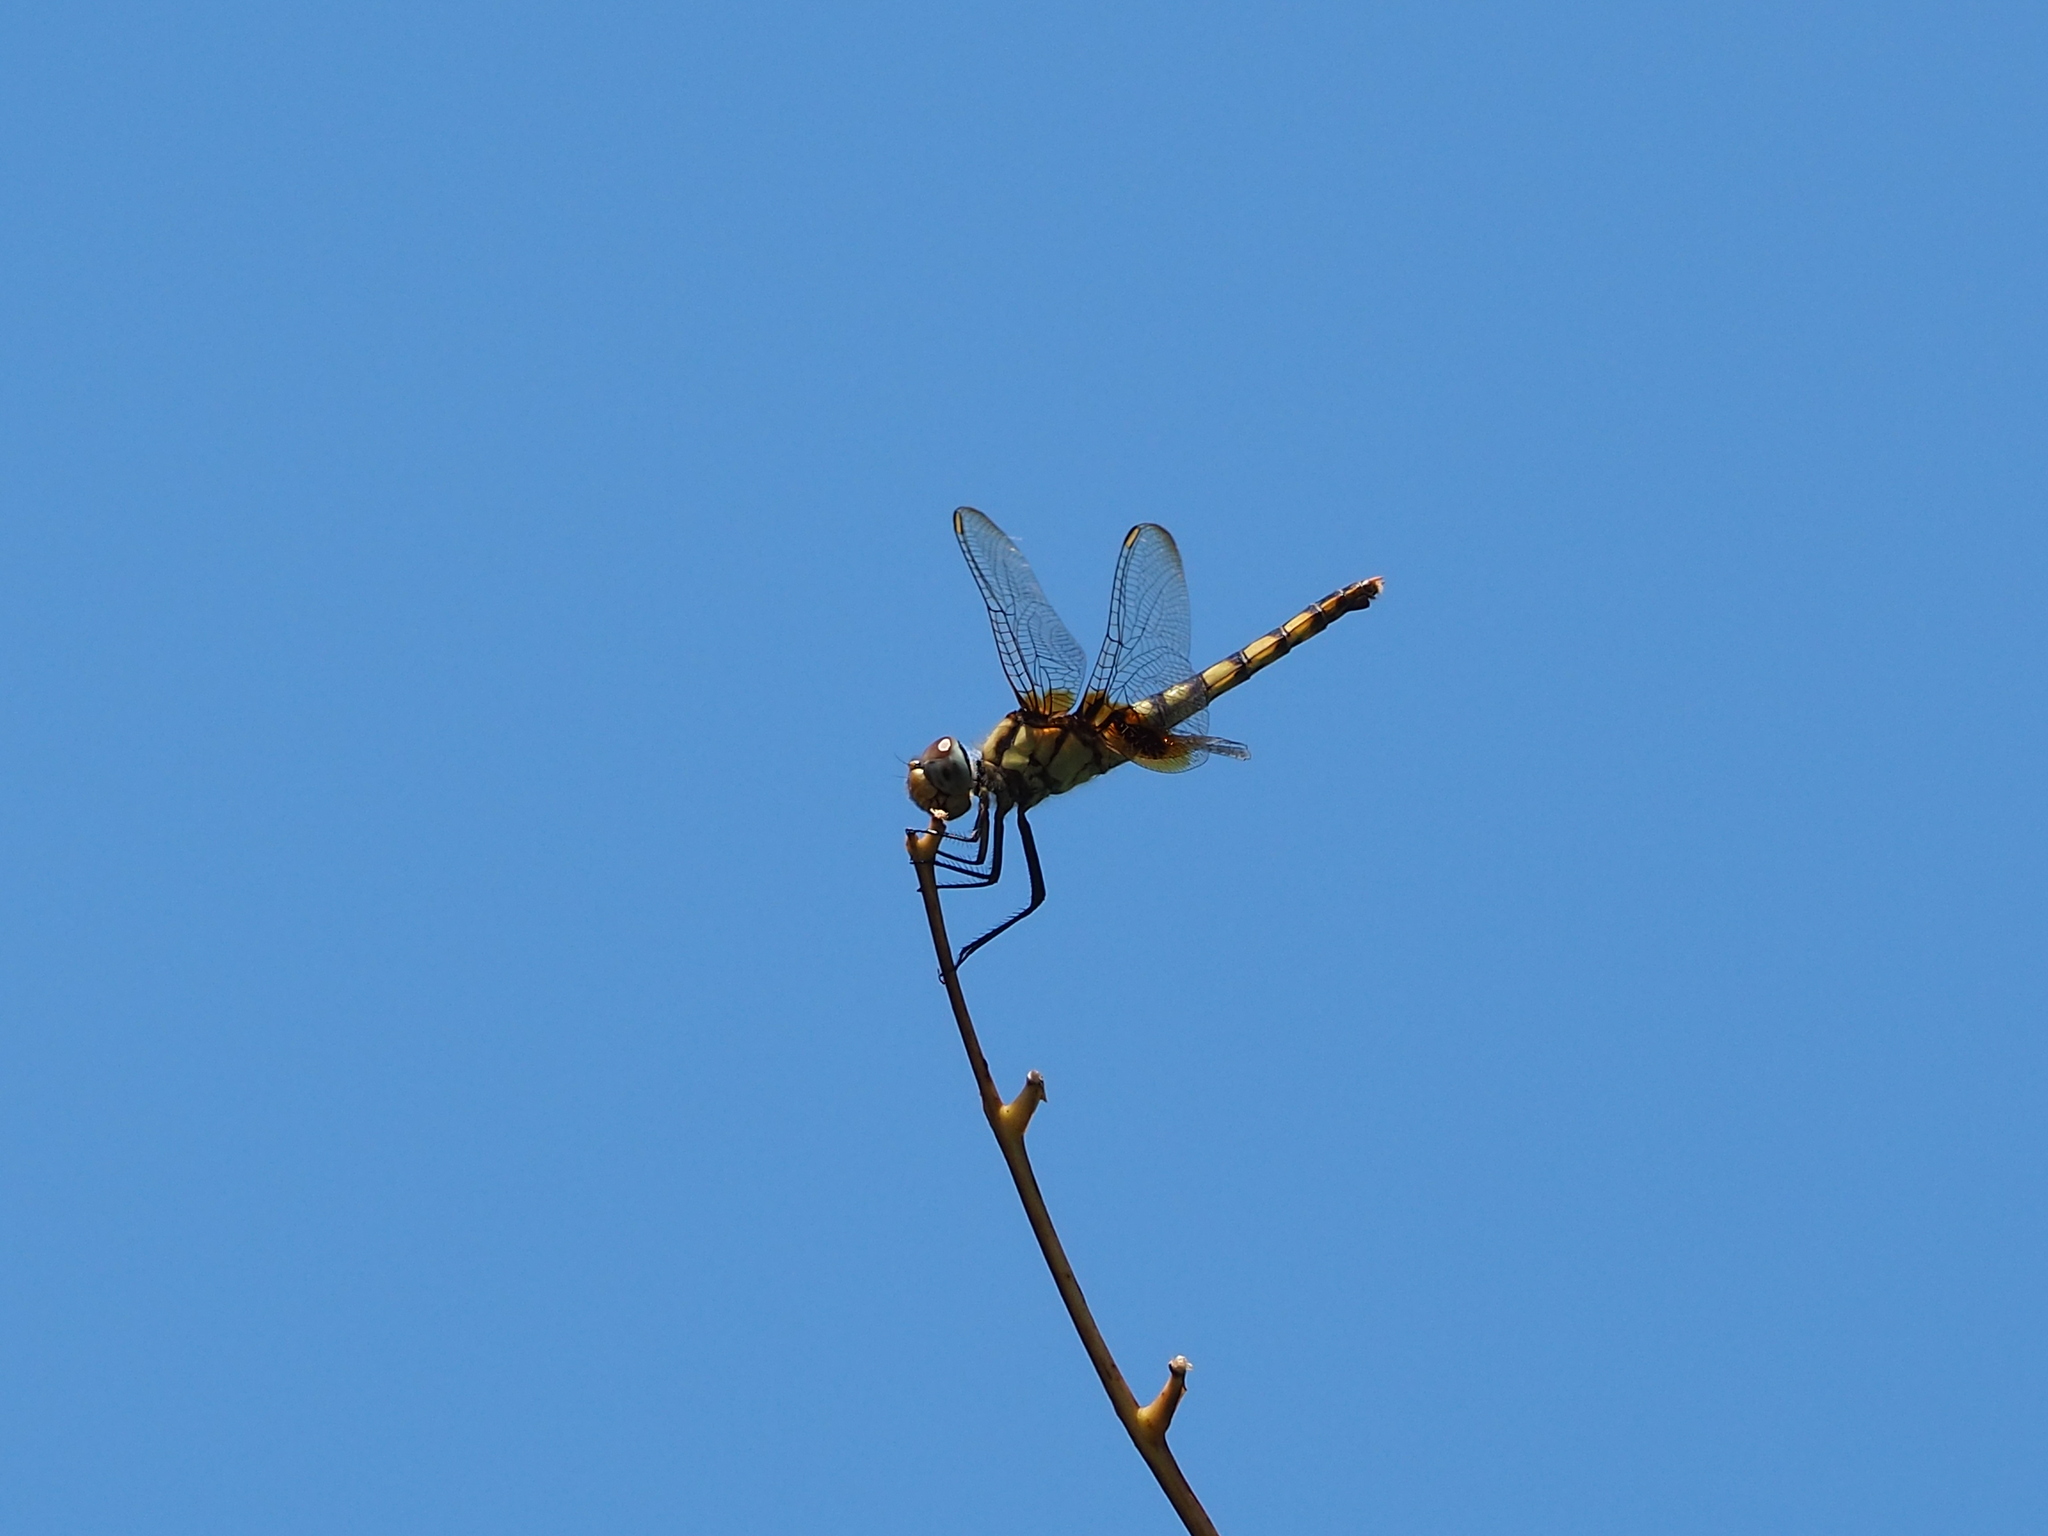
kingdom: Animalia
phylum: Arthropoda
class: Insecta
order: Odonata
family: Libellulidae
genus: Urothemis
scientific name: Urothemis signata
